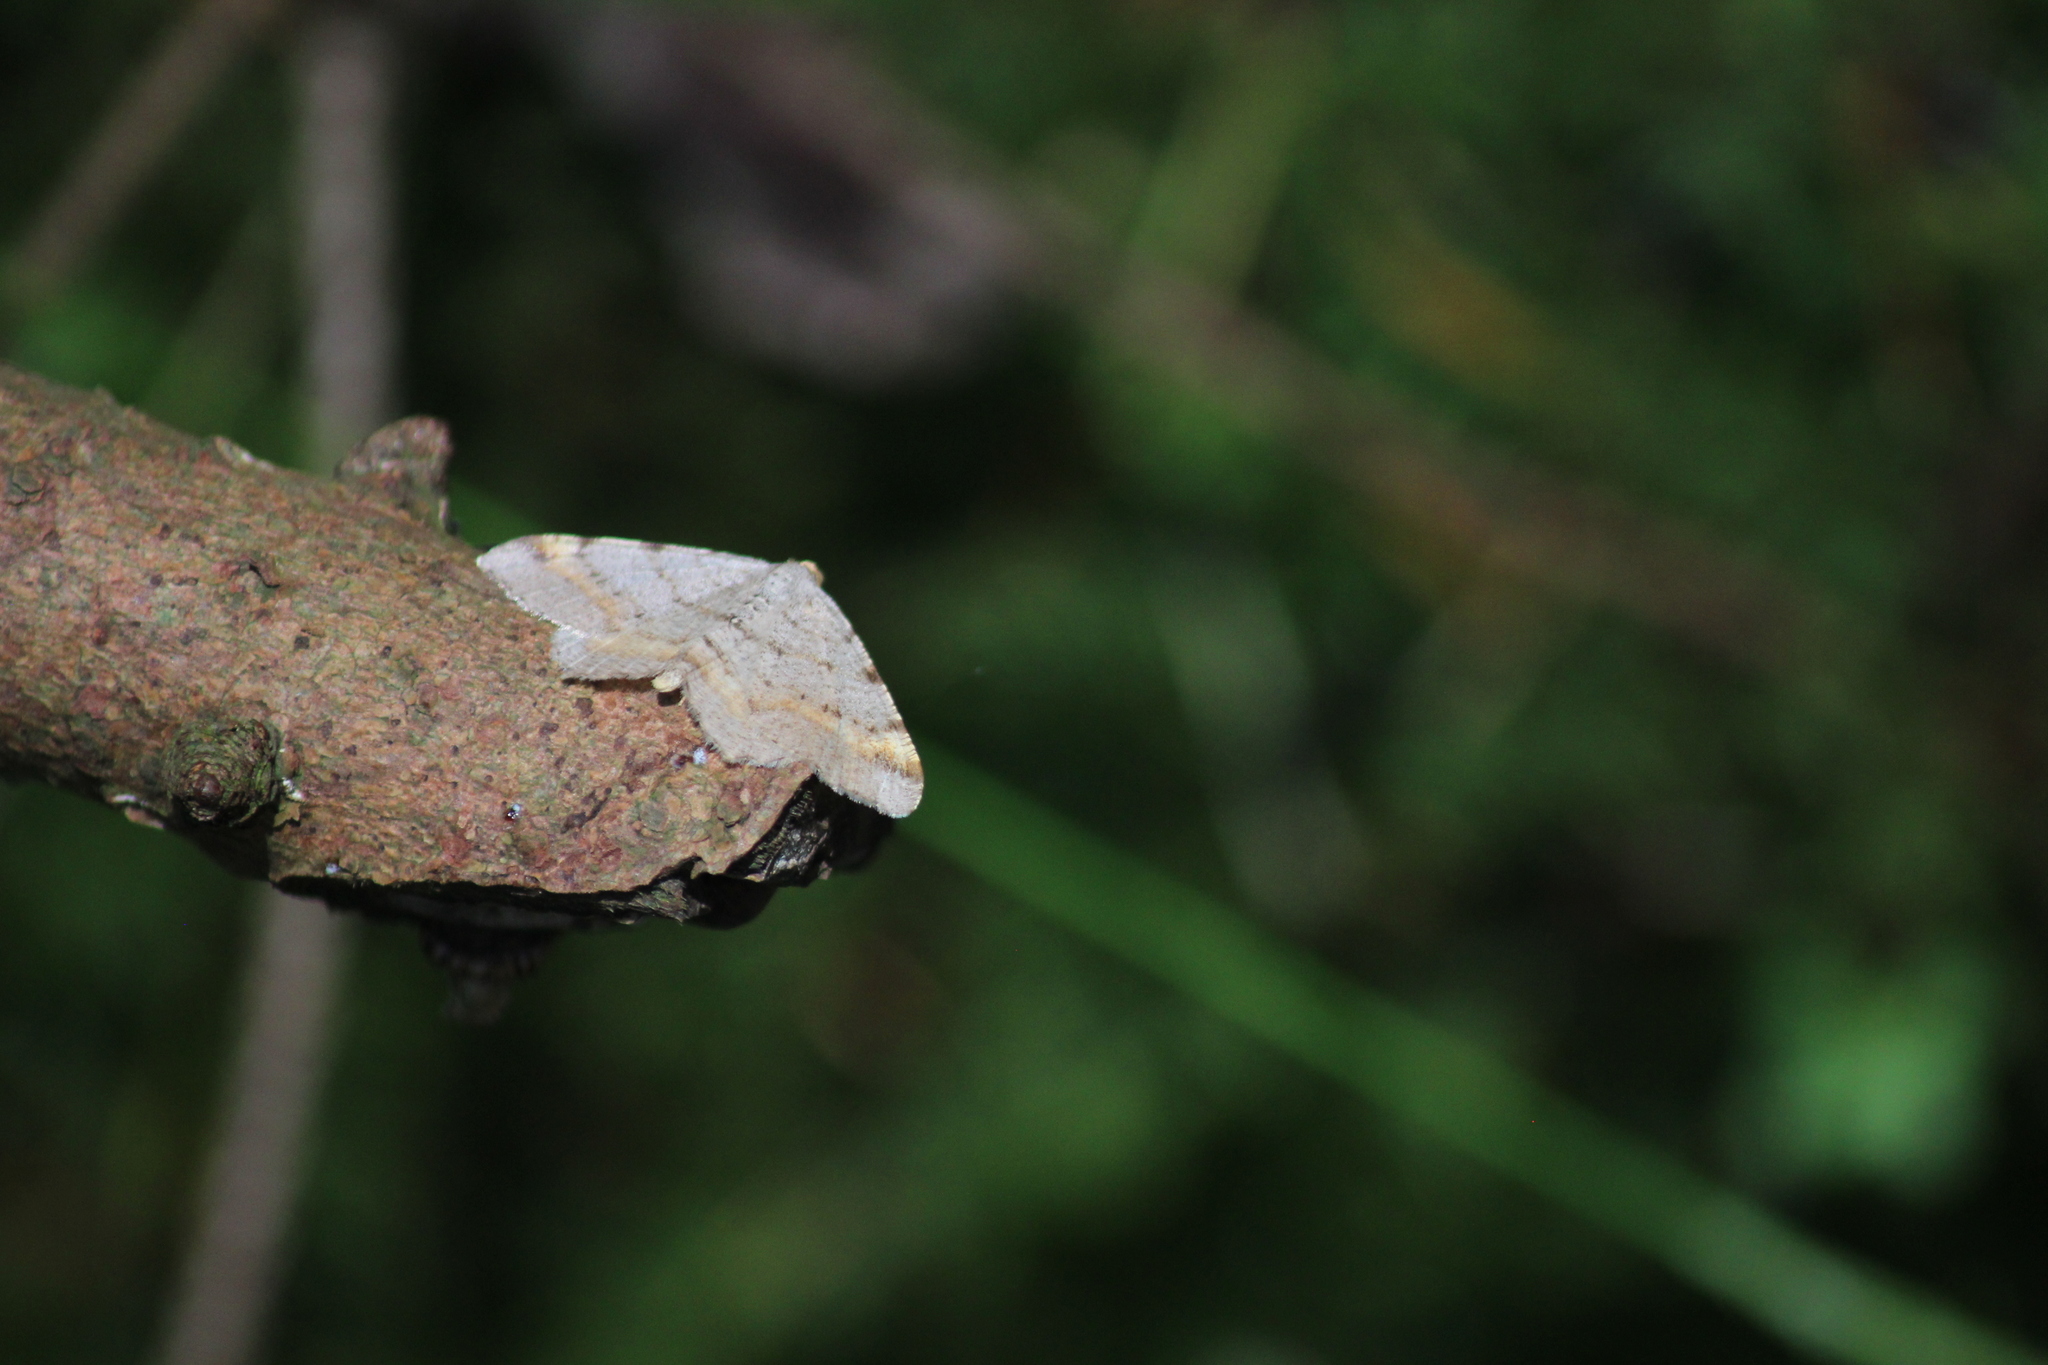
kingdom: Animalia
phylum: Arthropoda
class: Insecta
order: Lepidoptera
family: Geometridae
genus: Macaria
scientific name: Macaria liturata
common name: Tawny-barred angle
